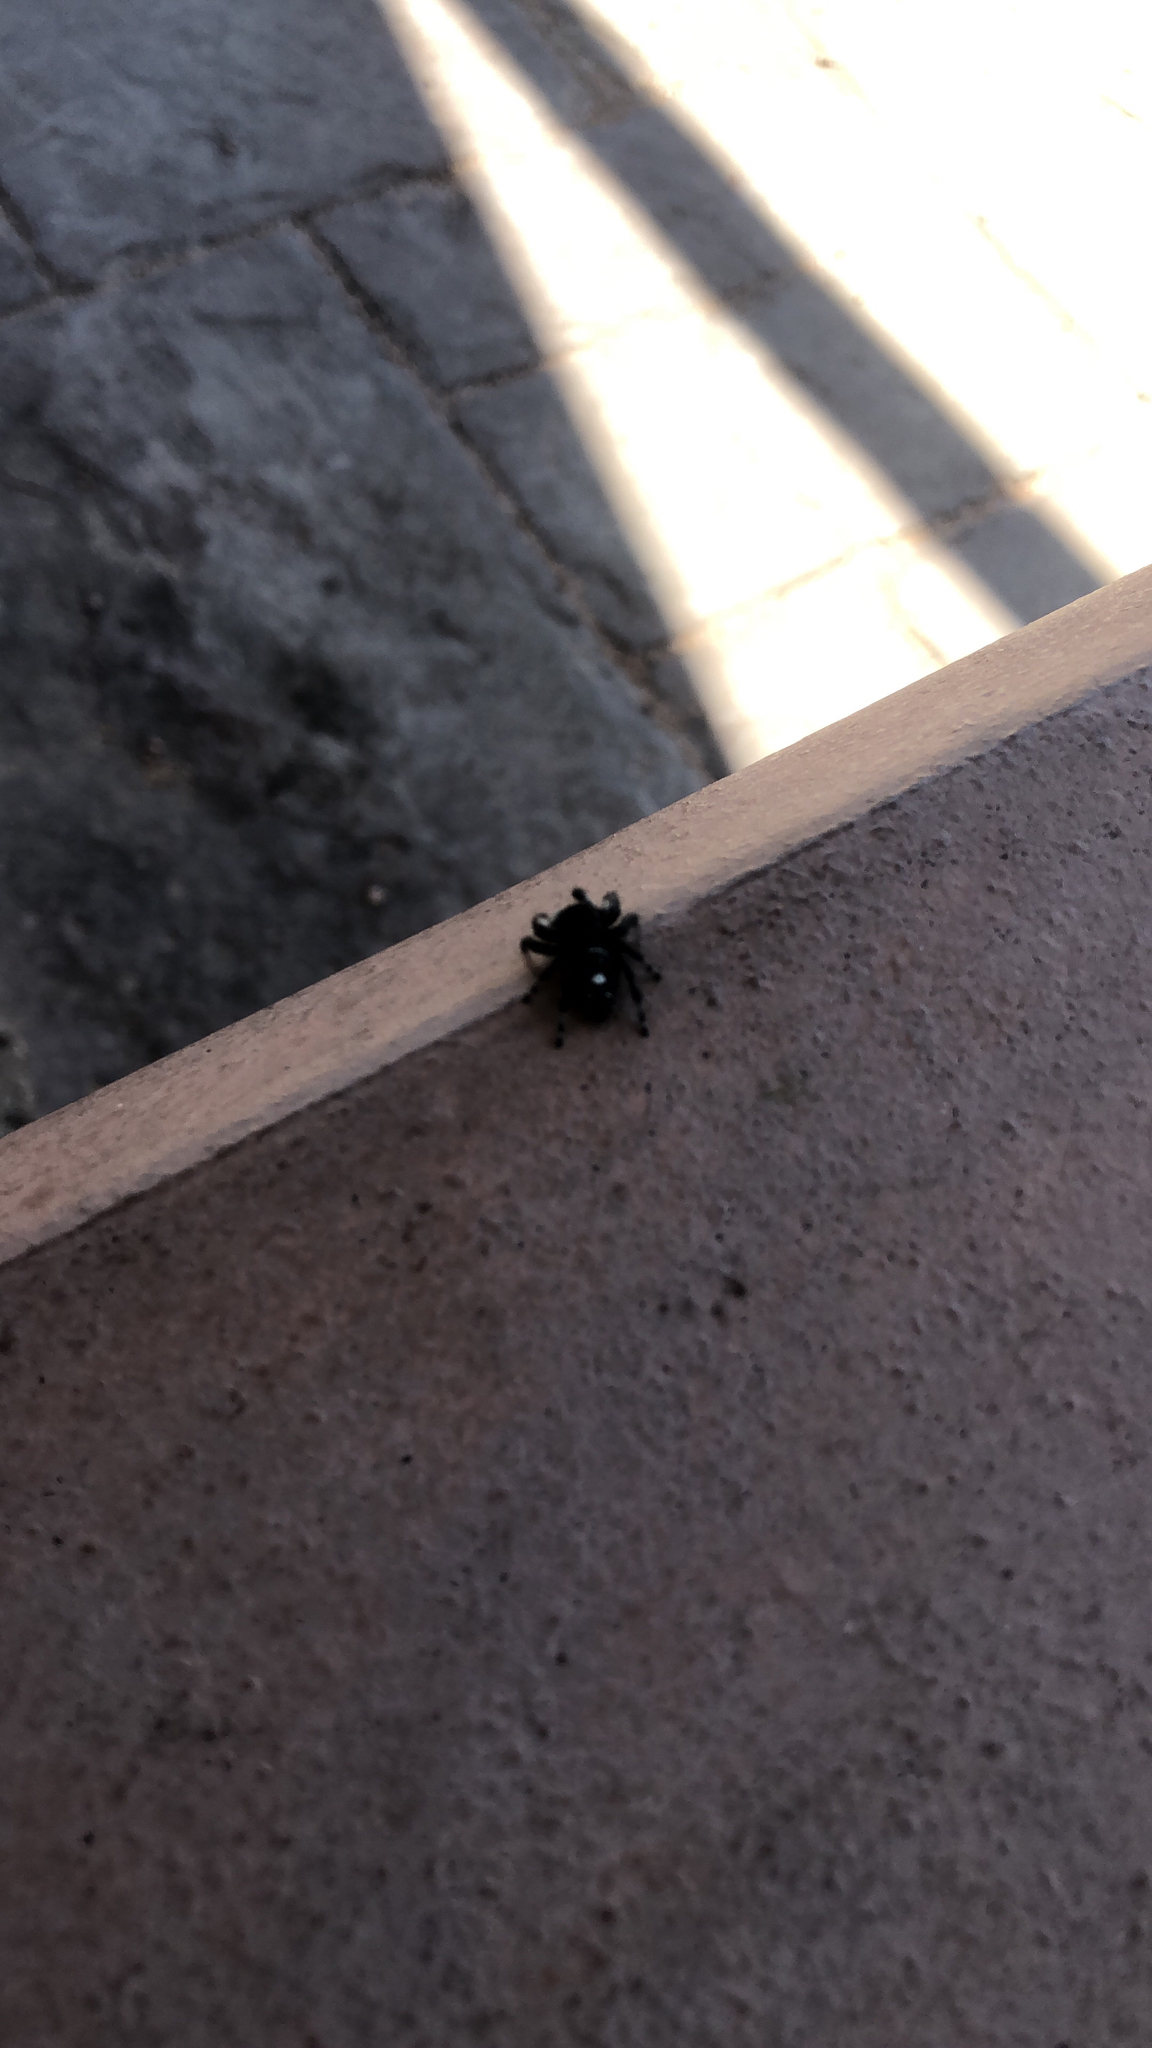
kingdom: Animalia
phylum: Arthropoda
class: Arachnida
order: Araneae
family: Salticidae
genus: Phidippus
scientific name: Phidippus audax
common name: Bold jumper
